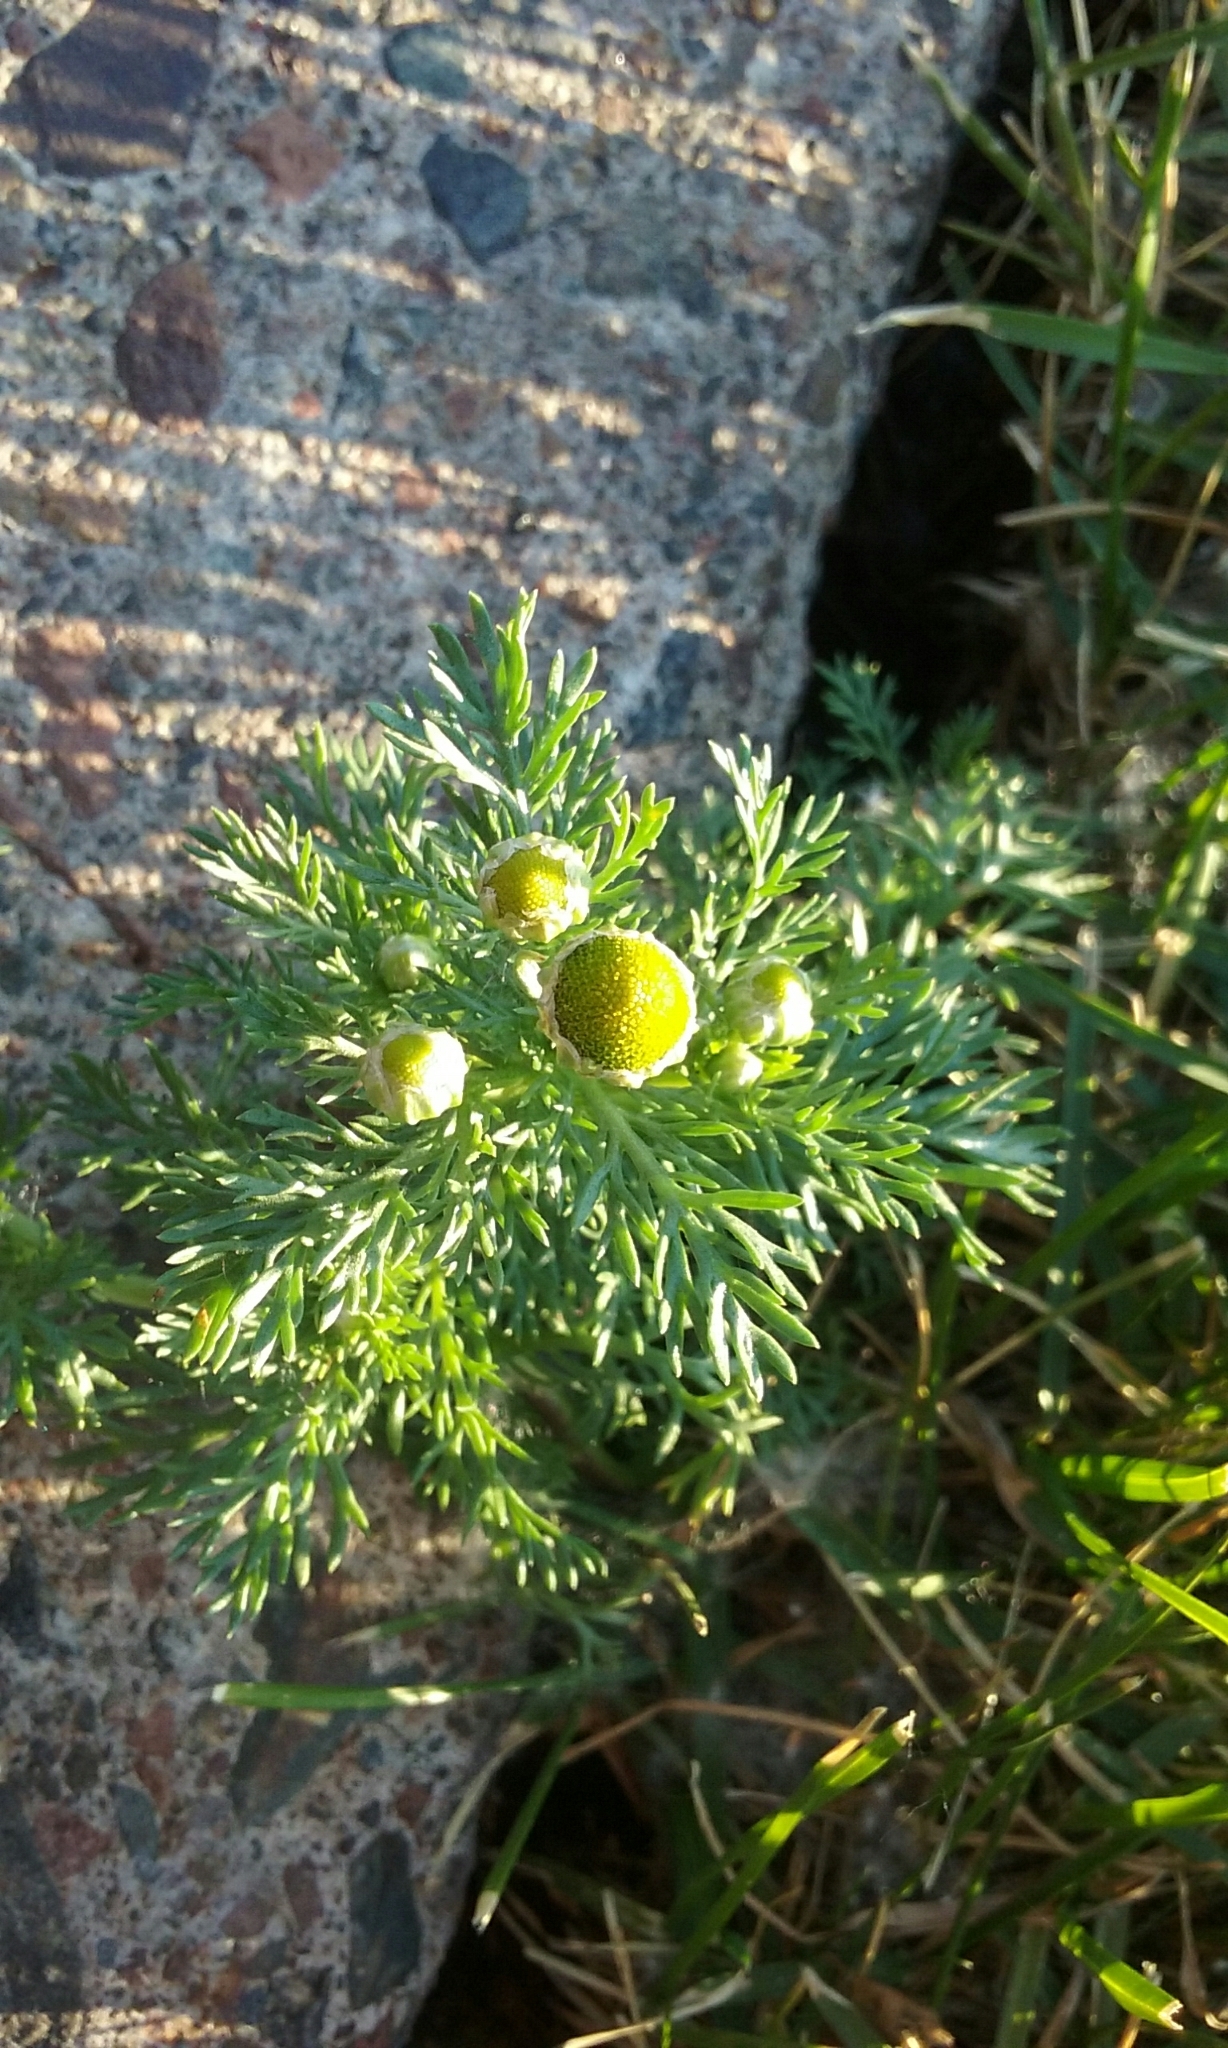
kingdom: Plantae
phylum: Tracheophyta
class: Magnoliopsida
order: Asterales
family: Asteraceae
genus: Matricaria
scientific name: Matricaria discoidea
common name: Disc mayweed
